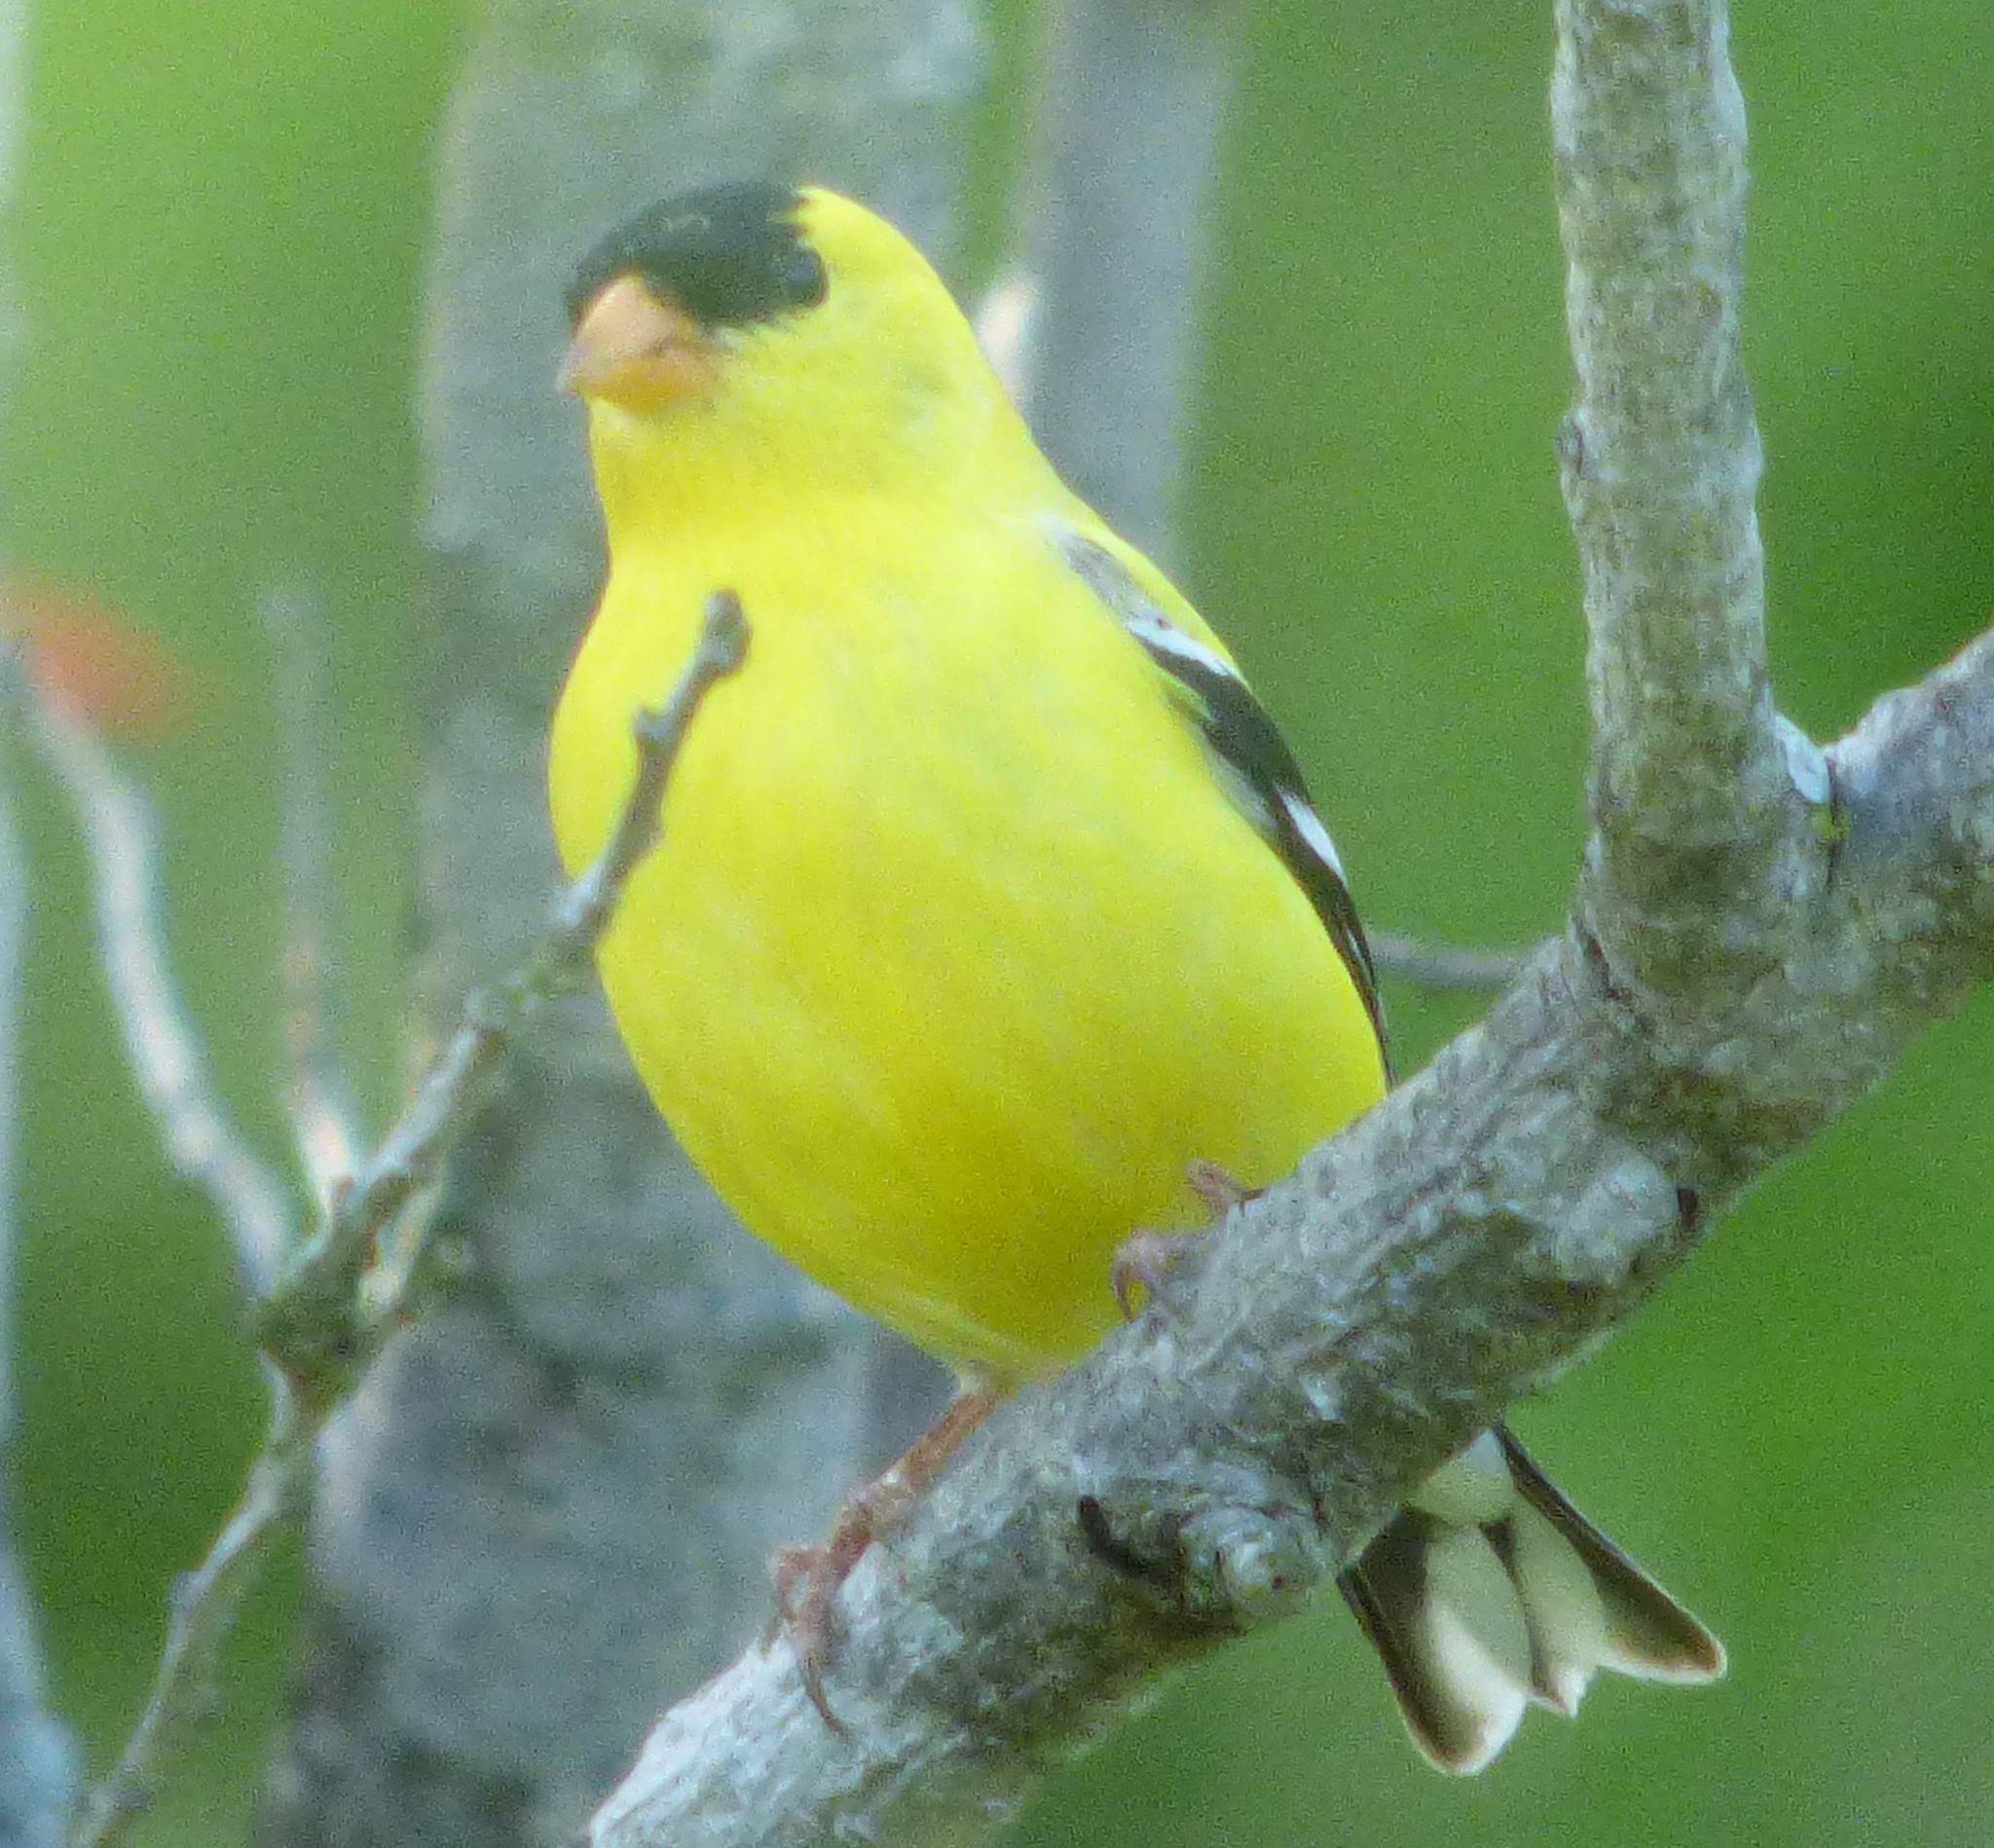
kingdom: Animalia
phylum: Chordata
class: Aves
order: Passeriformes
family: Fringillidae
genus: Spinus
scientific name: Spinus tristis
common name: American goldfinch
